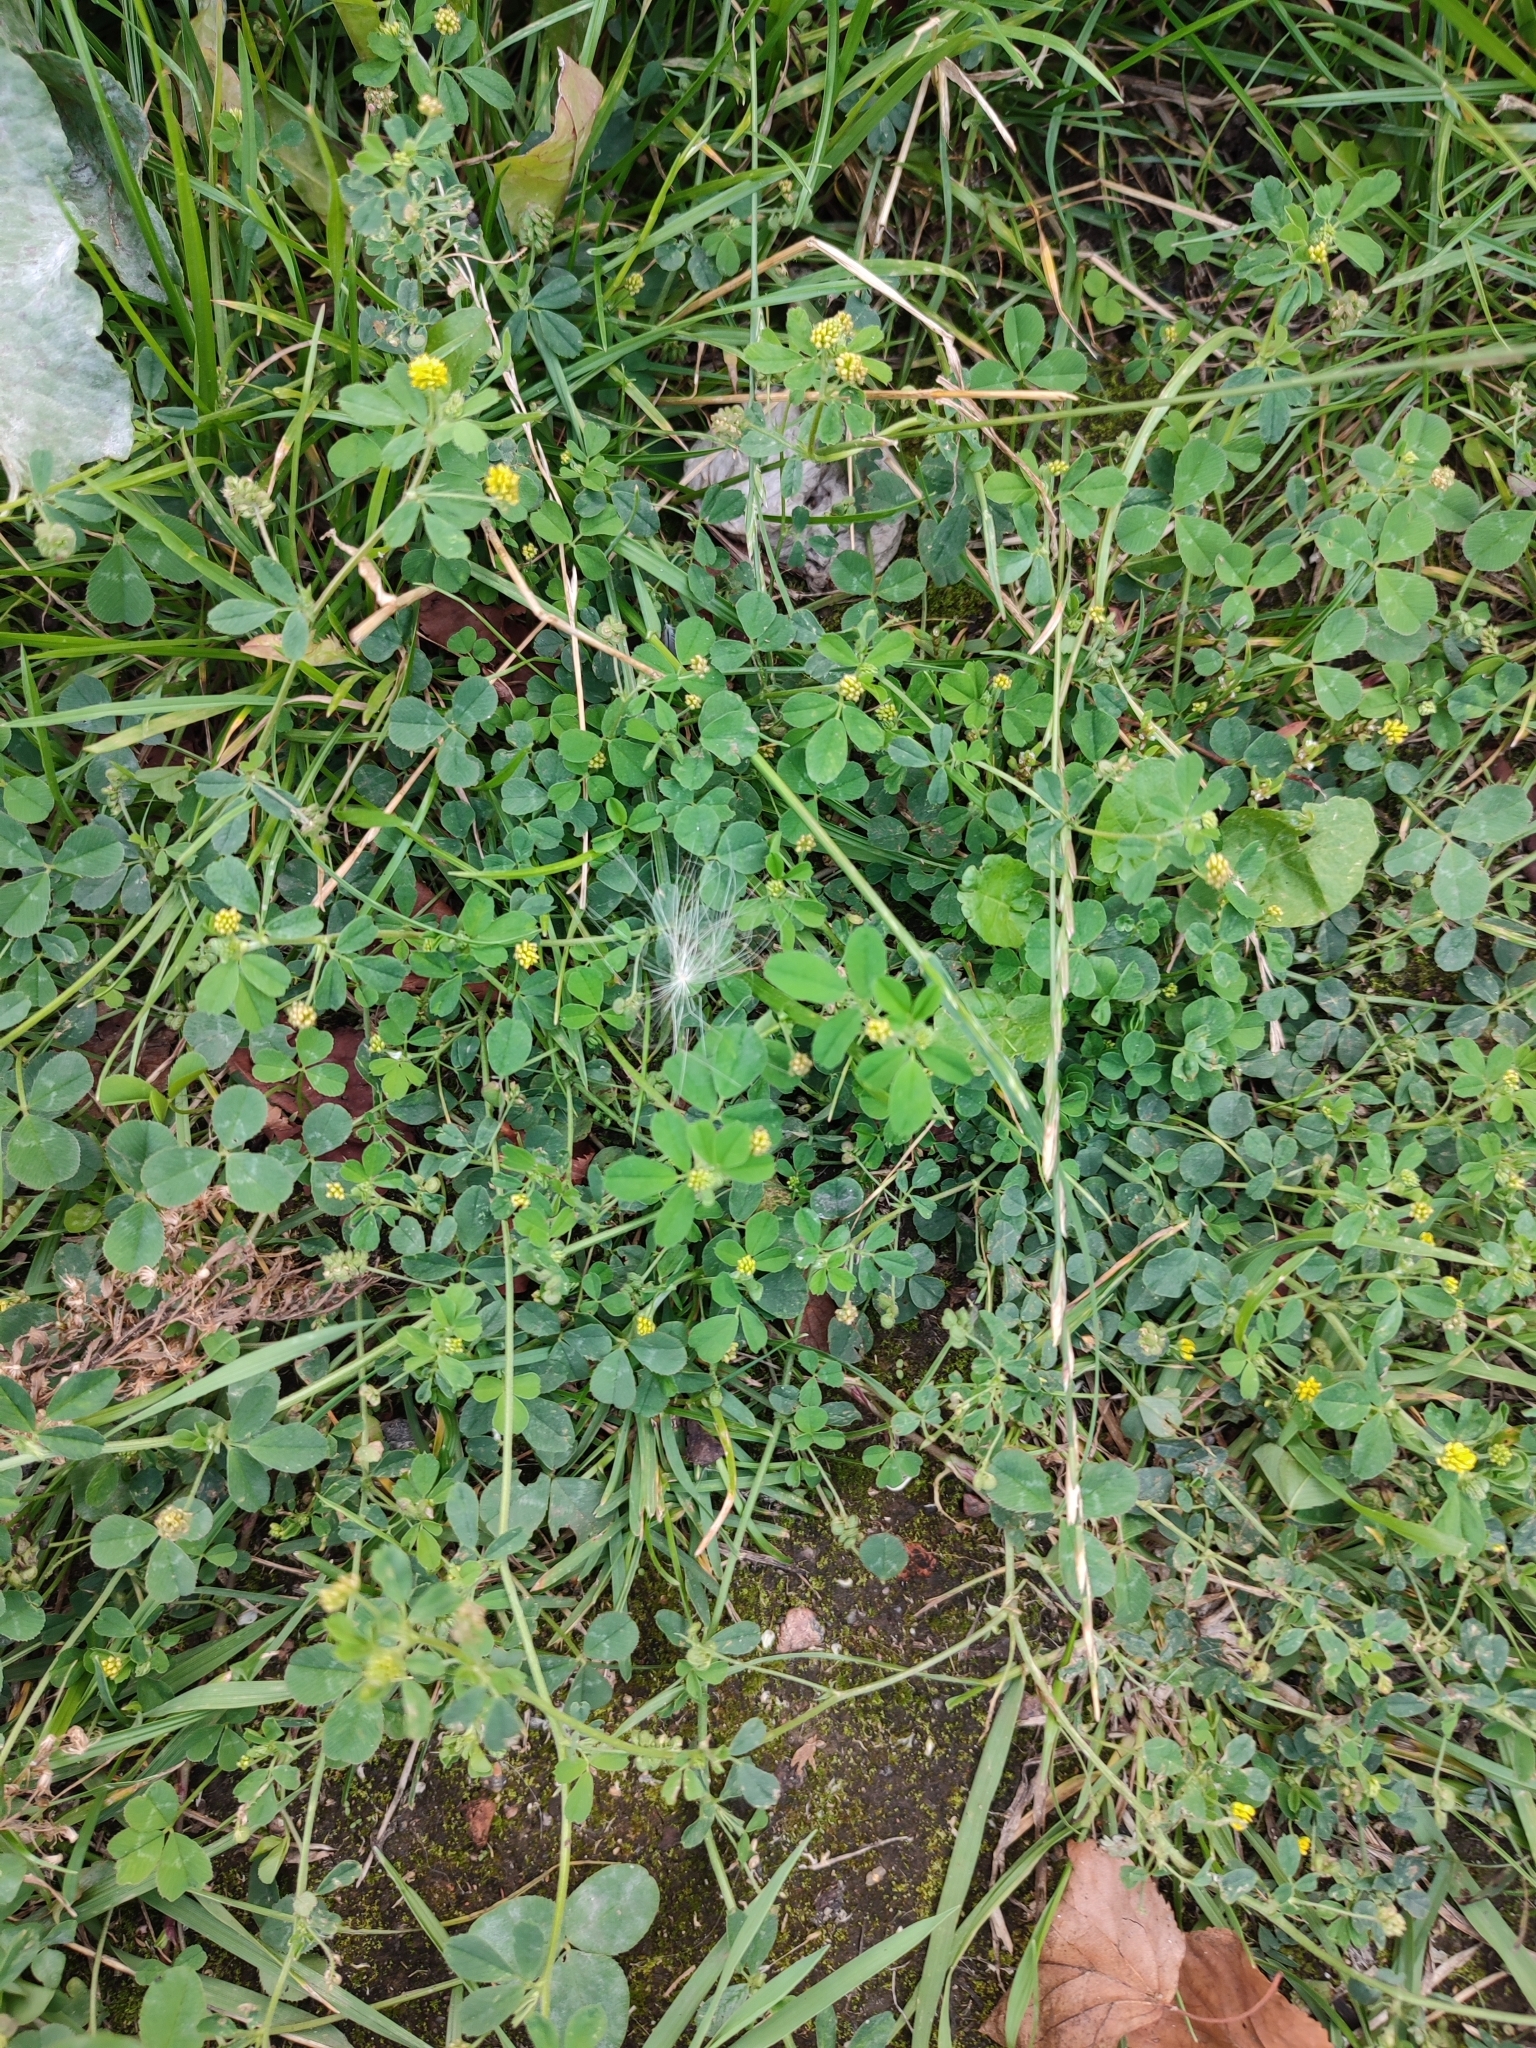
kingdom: Plantae
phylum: Tracheophyta
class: Magnoliopsida
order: Fabales
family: Fabaceae
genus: Medicago
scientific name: Medicago lupulina
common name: Black medick
